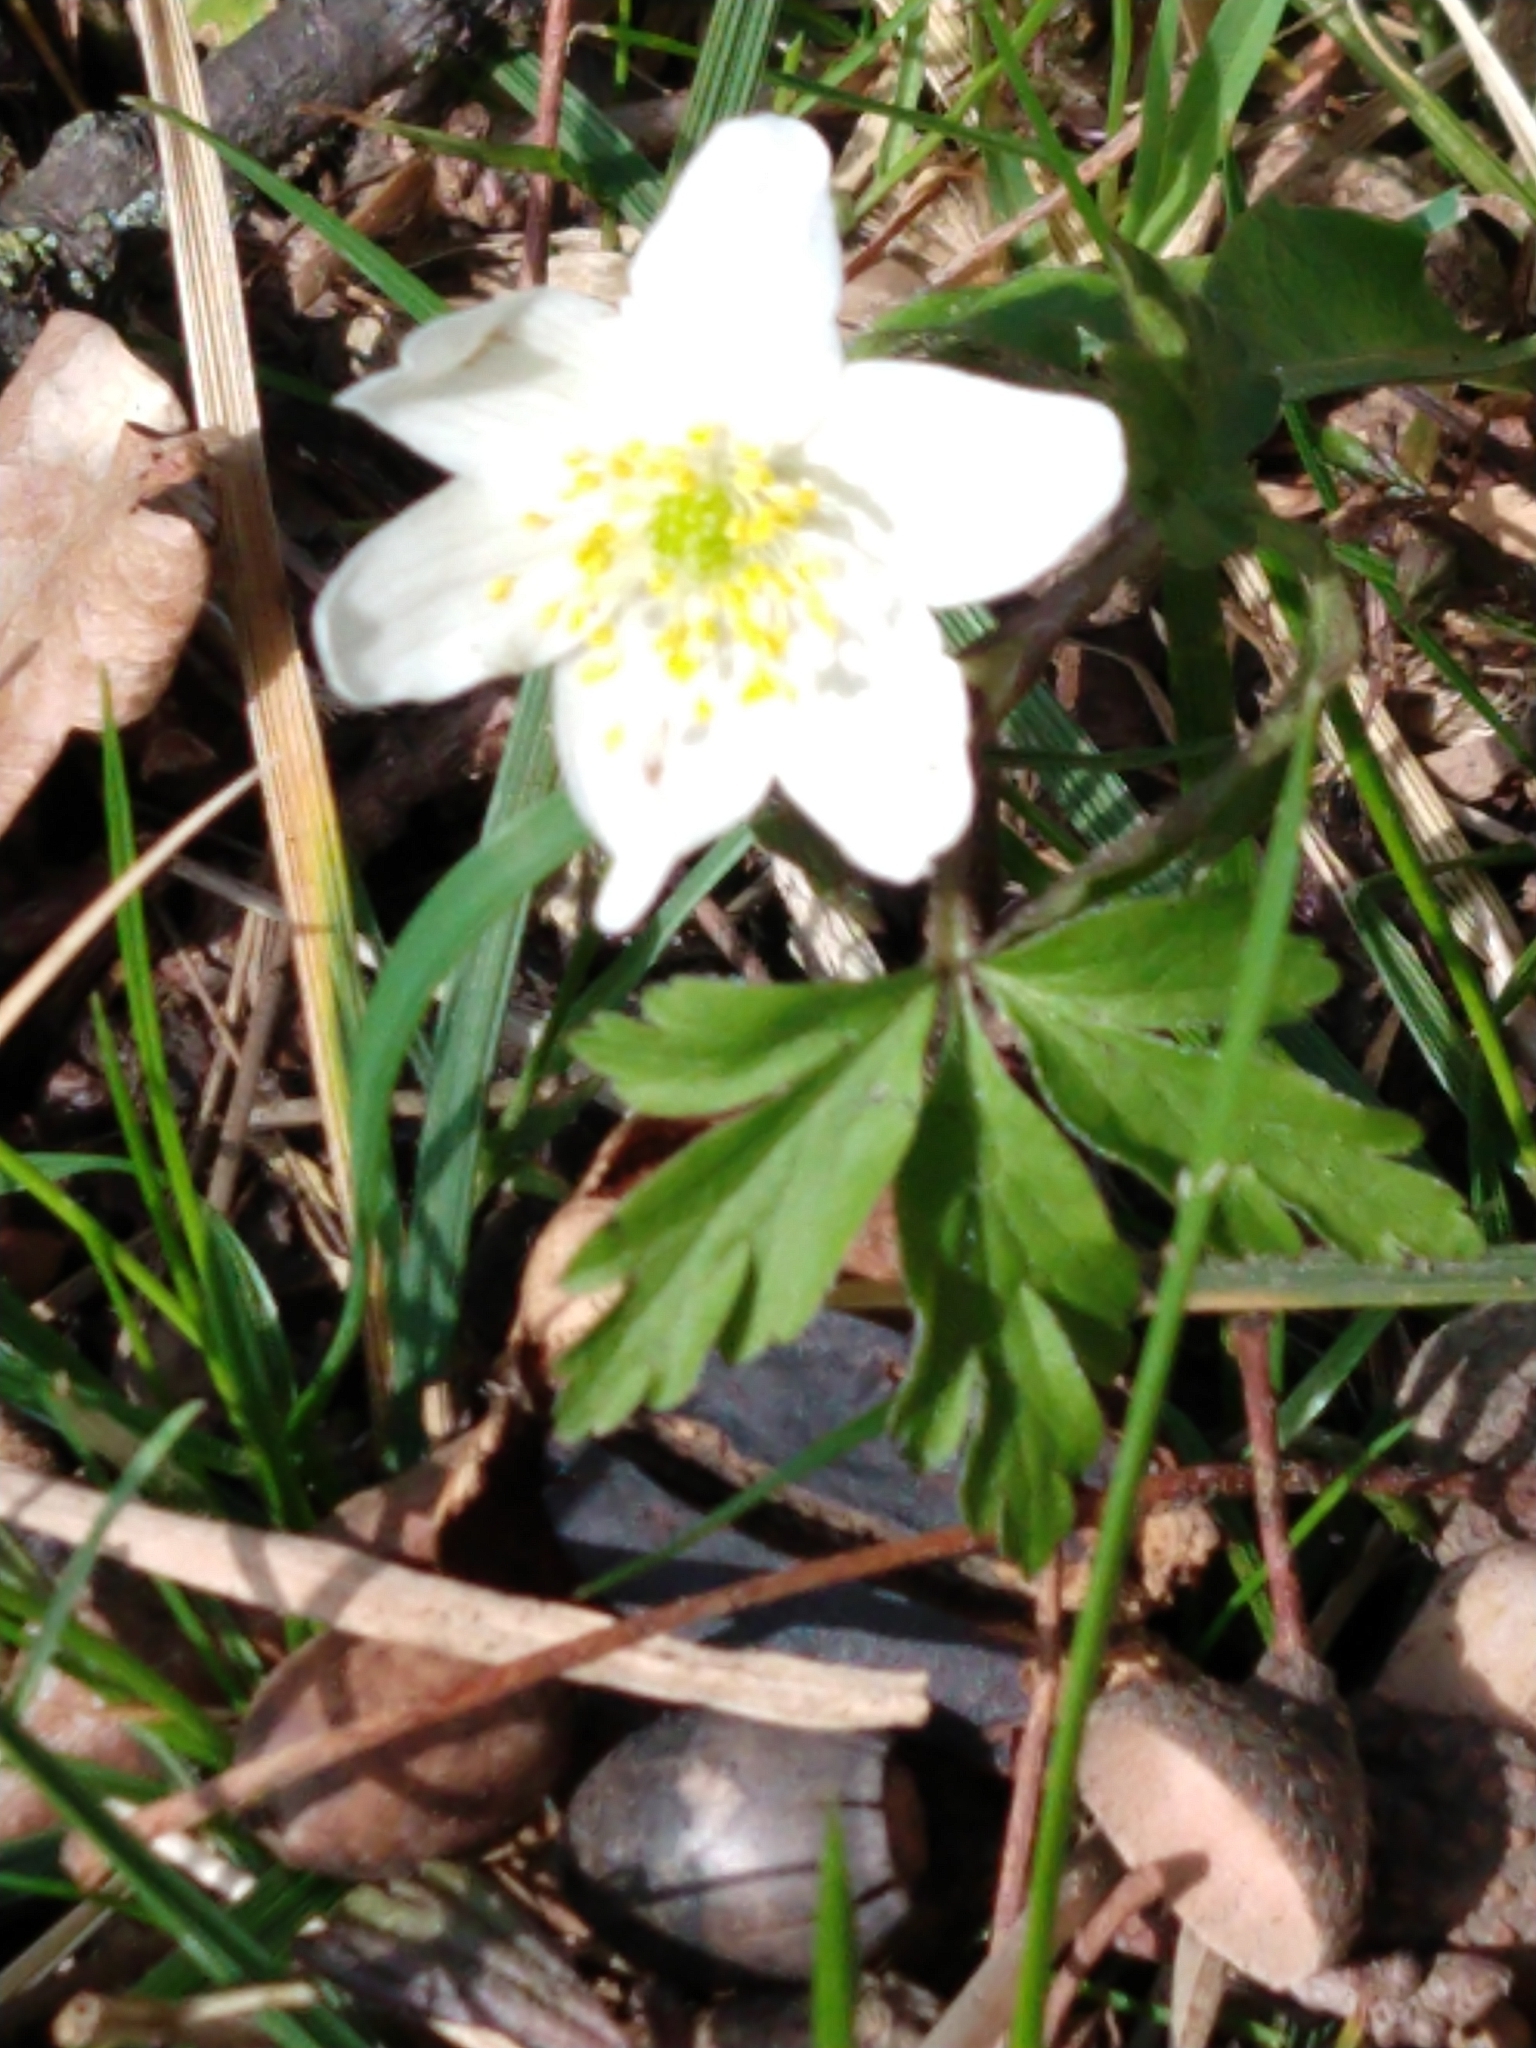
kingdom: Plantae
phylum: Tracheophyta
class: Magnoliopsida
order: Ranunculales
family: Ranunculaceae
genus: Anemone
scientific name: Anemone nemorosa
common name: Wood anemone
